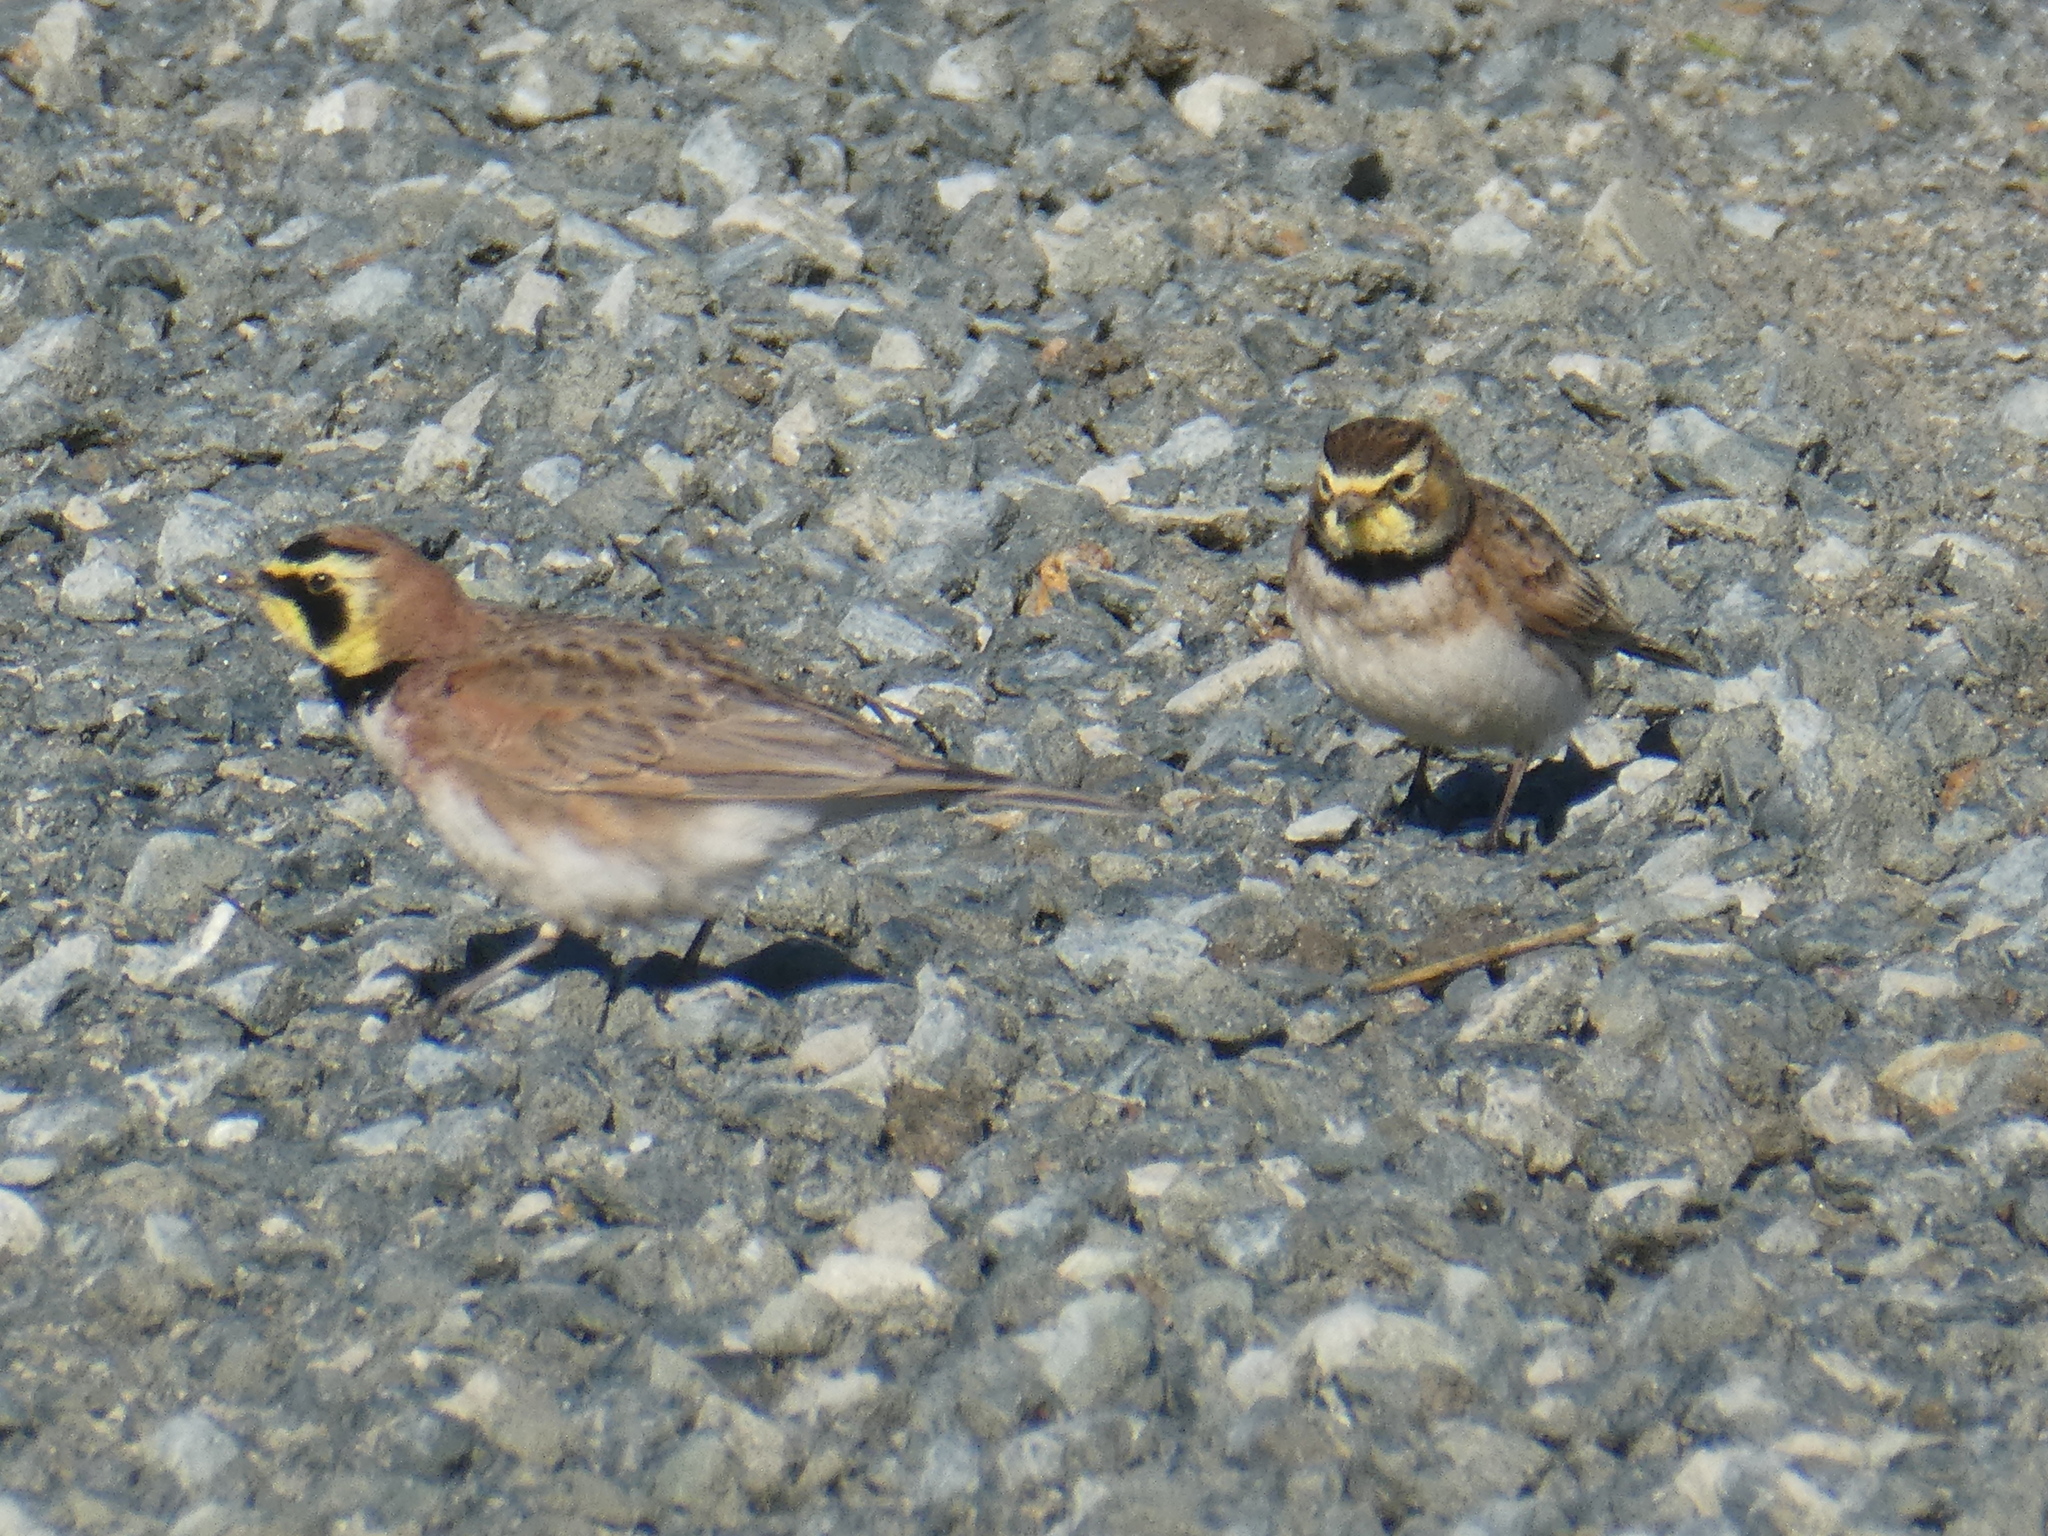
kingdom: Animalia
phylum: Chordata
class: Aves
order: Passeriformes
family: Alaudidae
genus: Eremophila
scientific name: Eremophila alpestris
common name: Horned lark
